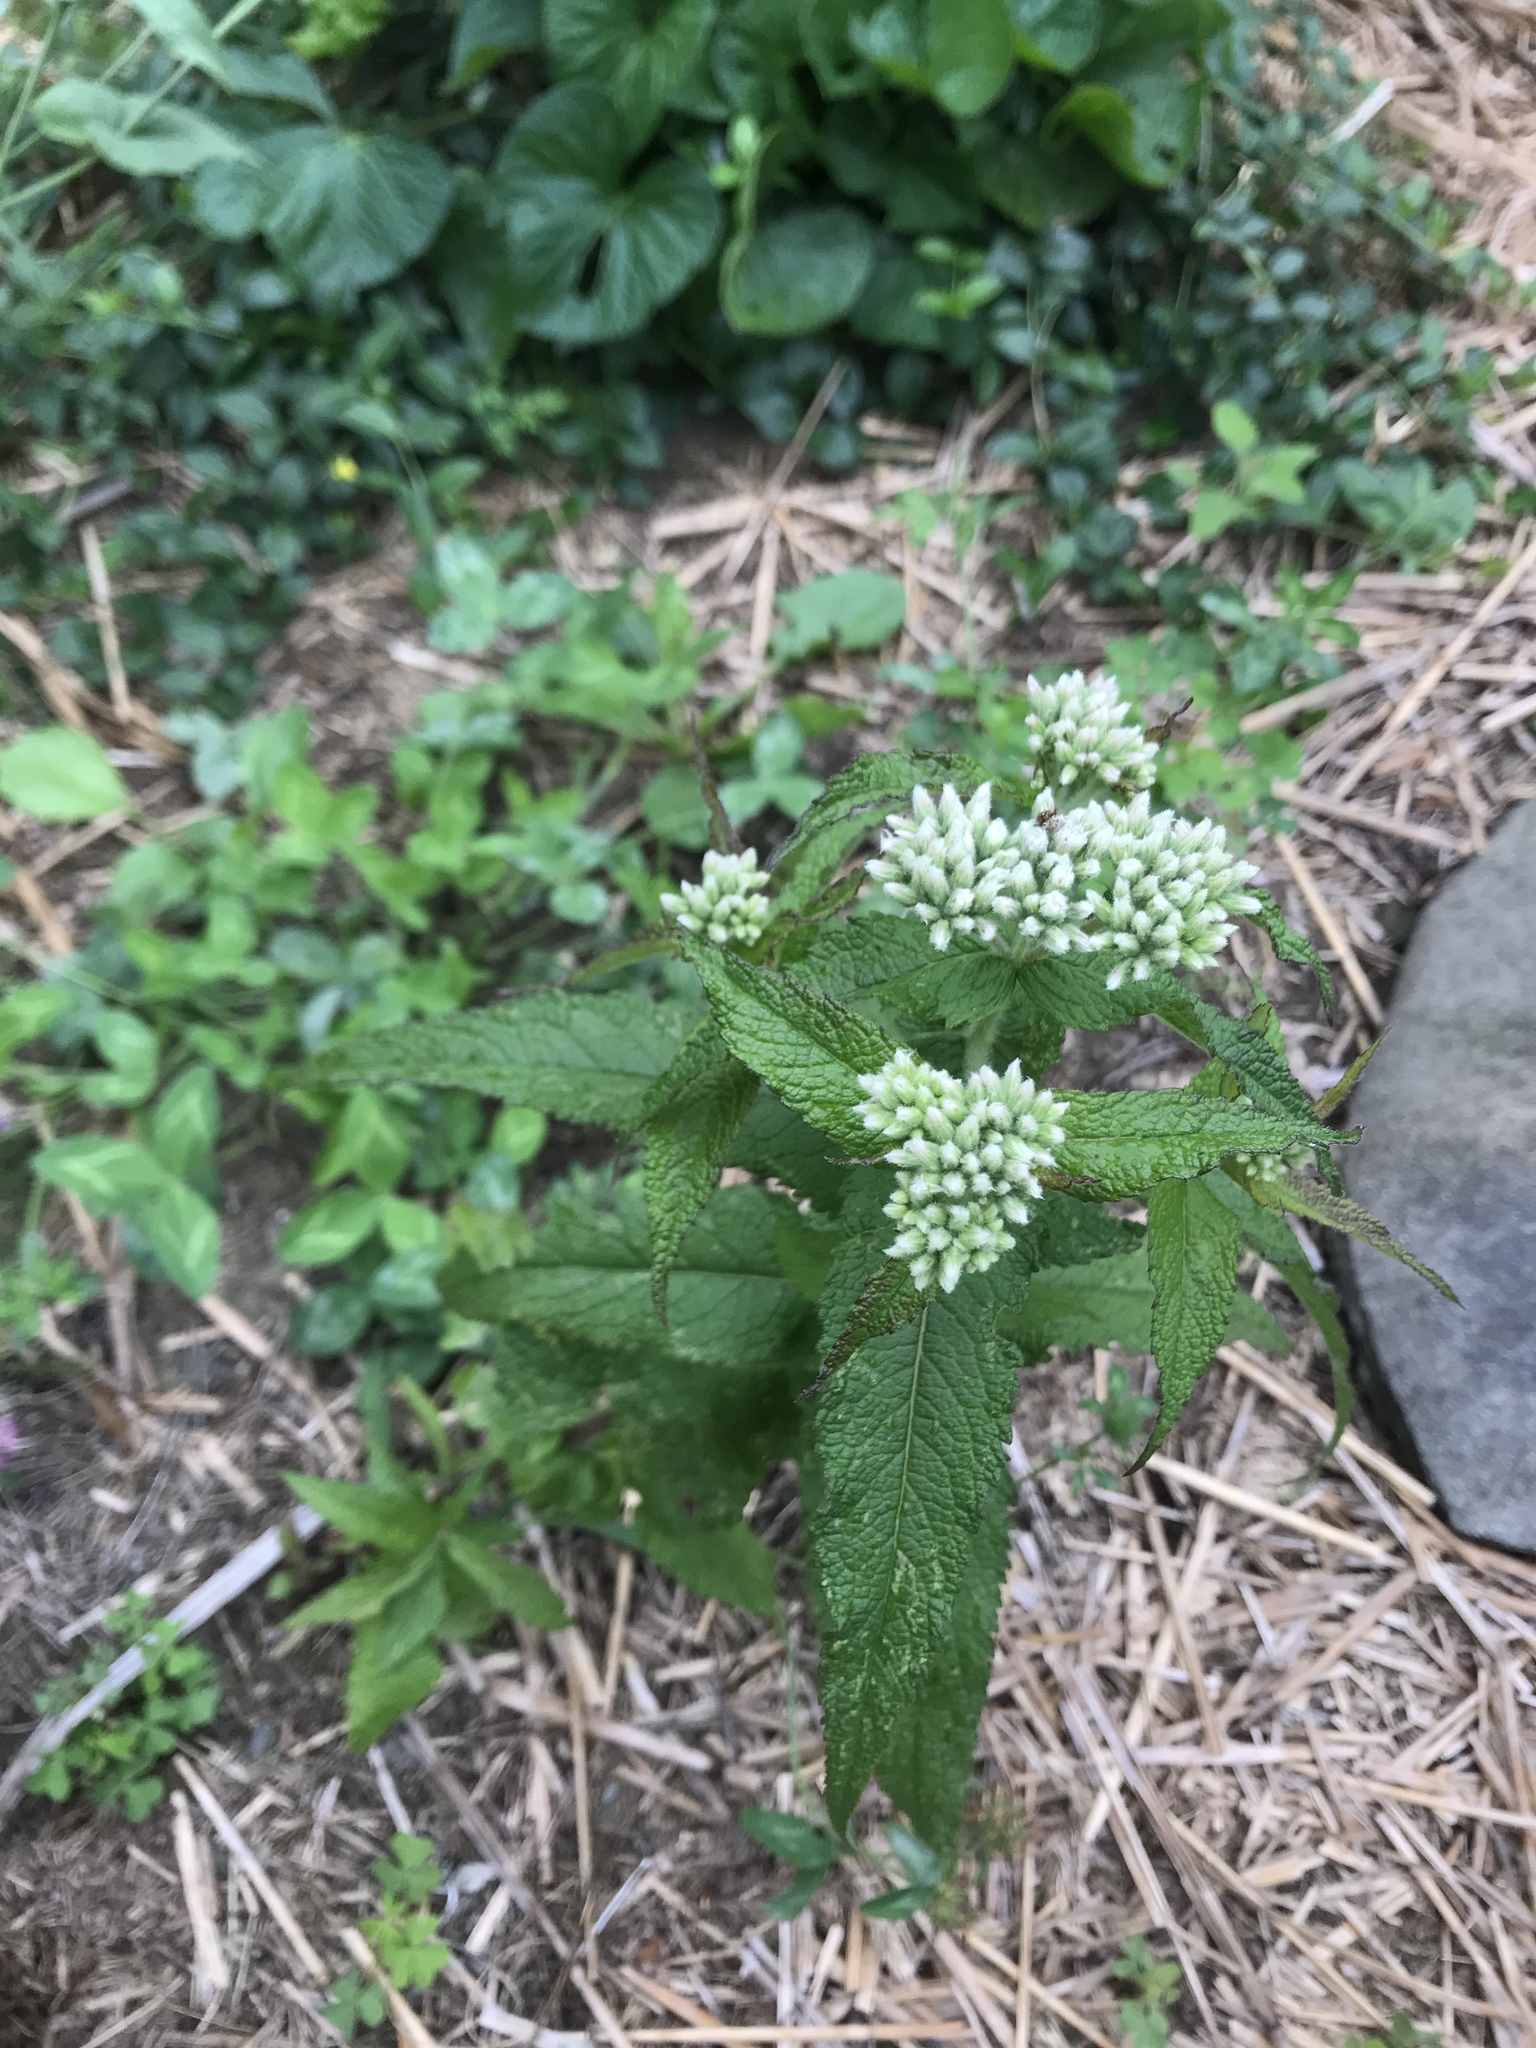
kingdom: Plantae
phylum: Tracheophyta
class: Magnoliopsida
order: Asterales
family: Asteraceae
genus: Eupatorium
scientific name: Eupatorium perfoliatum
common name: Boneset
